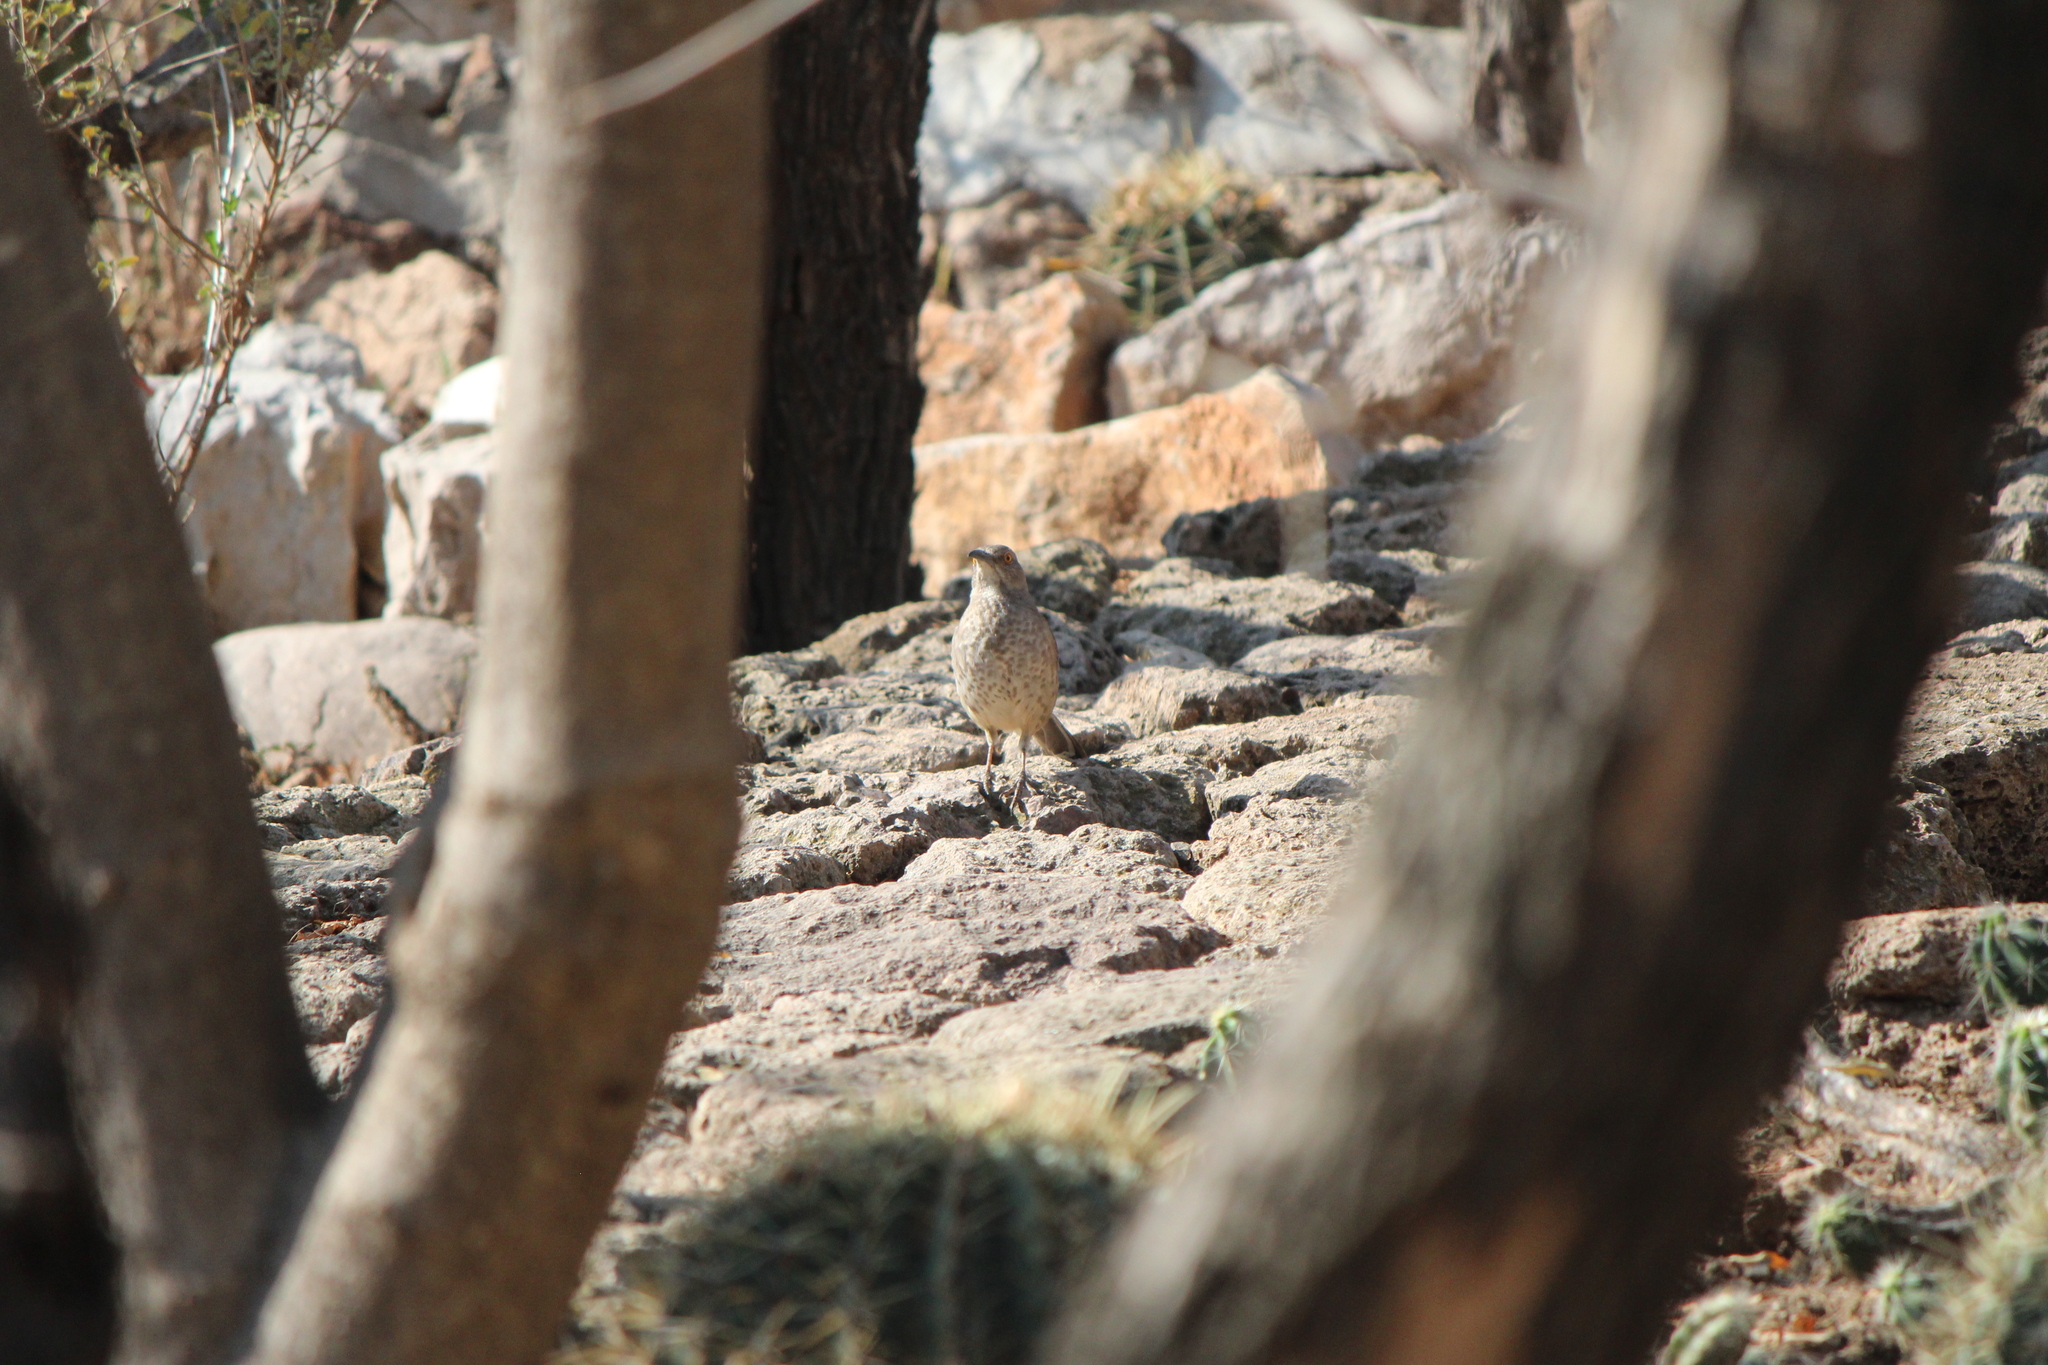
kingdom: Animalia
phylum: Chordata
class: Aves
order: Passeriformes
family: Mimidae
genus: Toxostoma
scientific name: Toxostoma curvirostre
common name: Curve-billed thrasher
